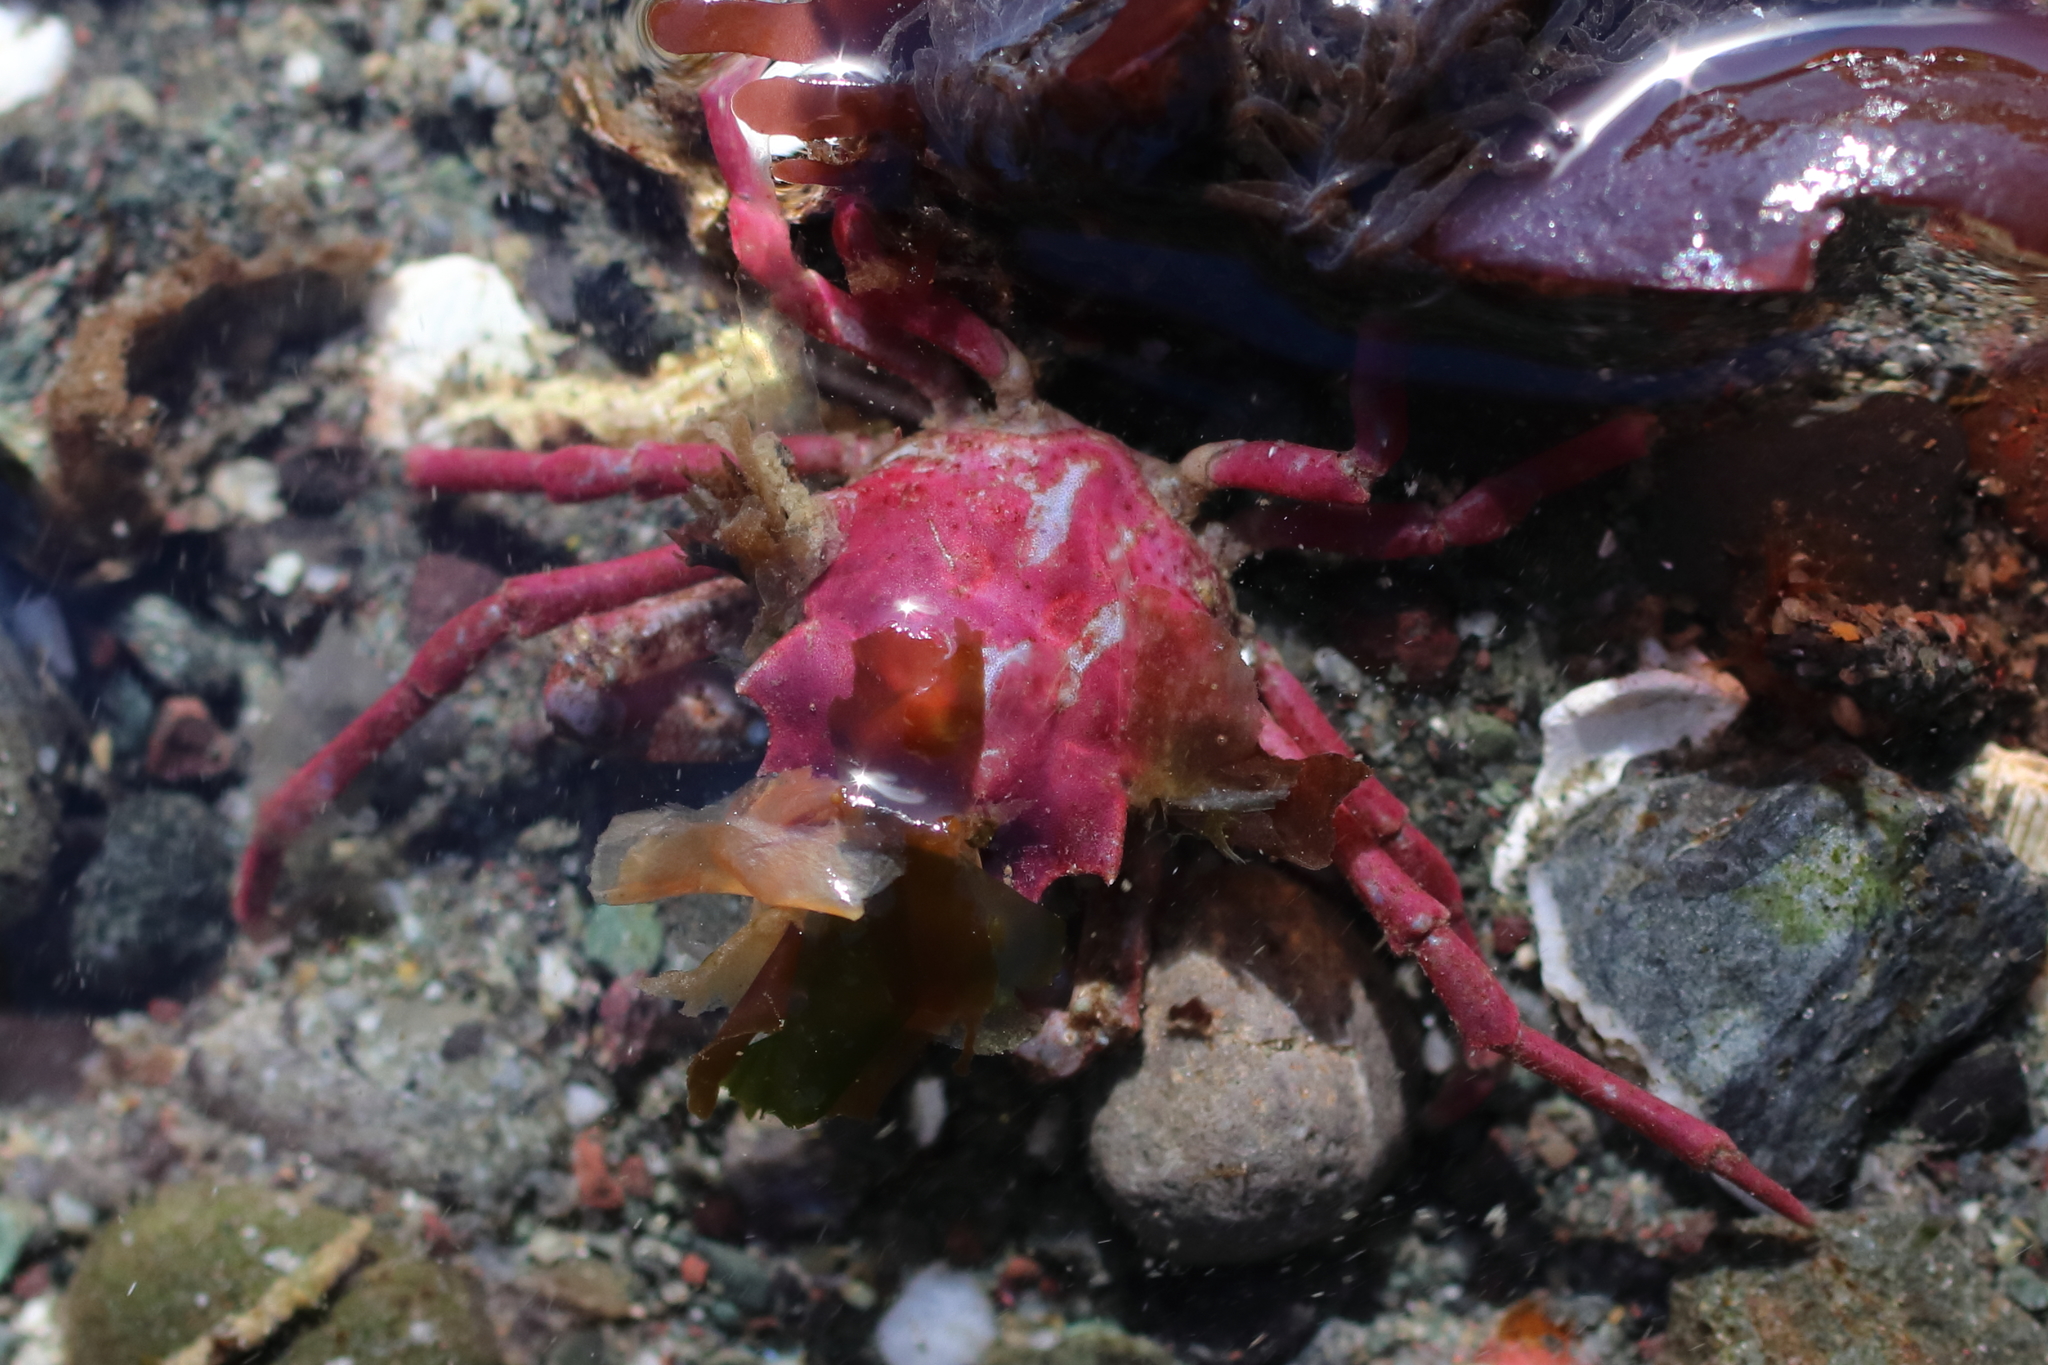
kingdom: Animalia
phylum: Arthropoda
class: Malacostraca
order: Decapoda
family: Epialtidae
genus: Pugettia
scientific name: Pugettia gracilis
